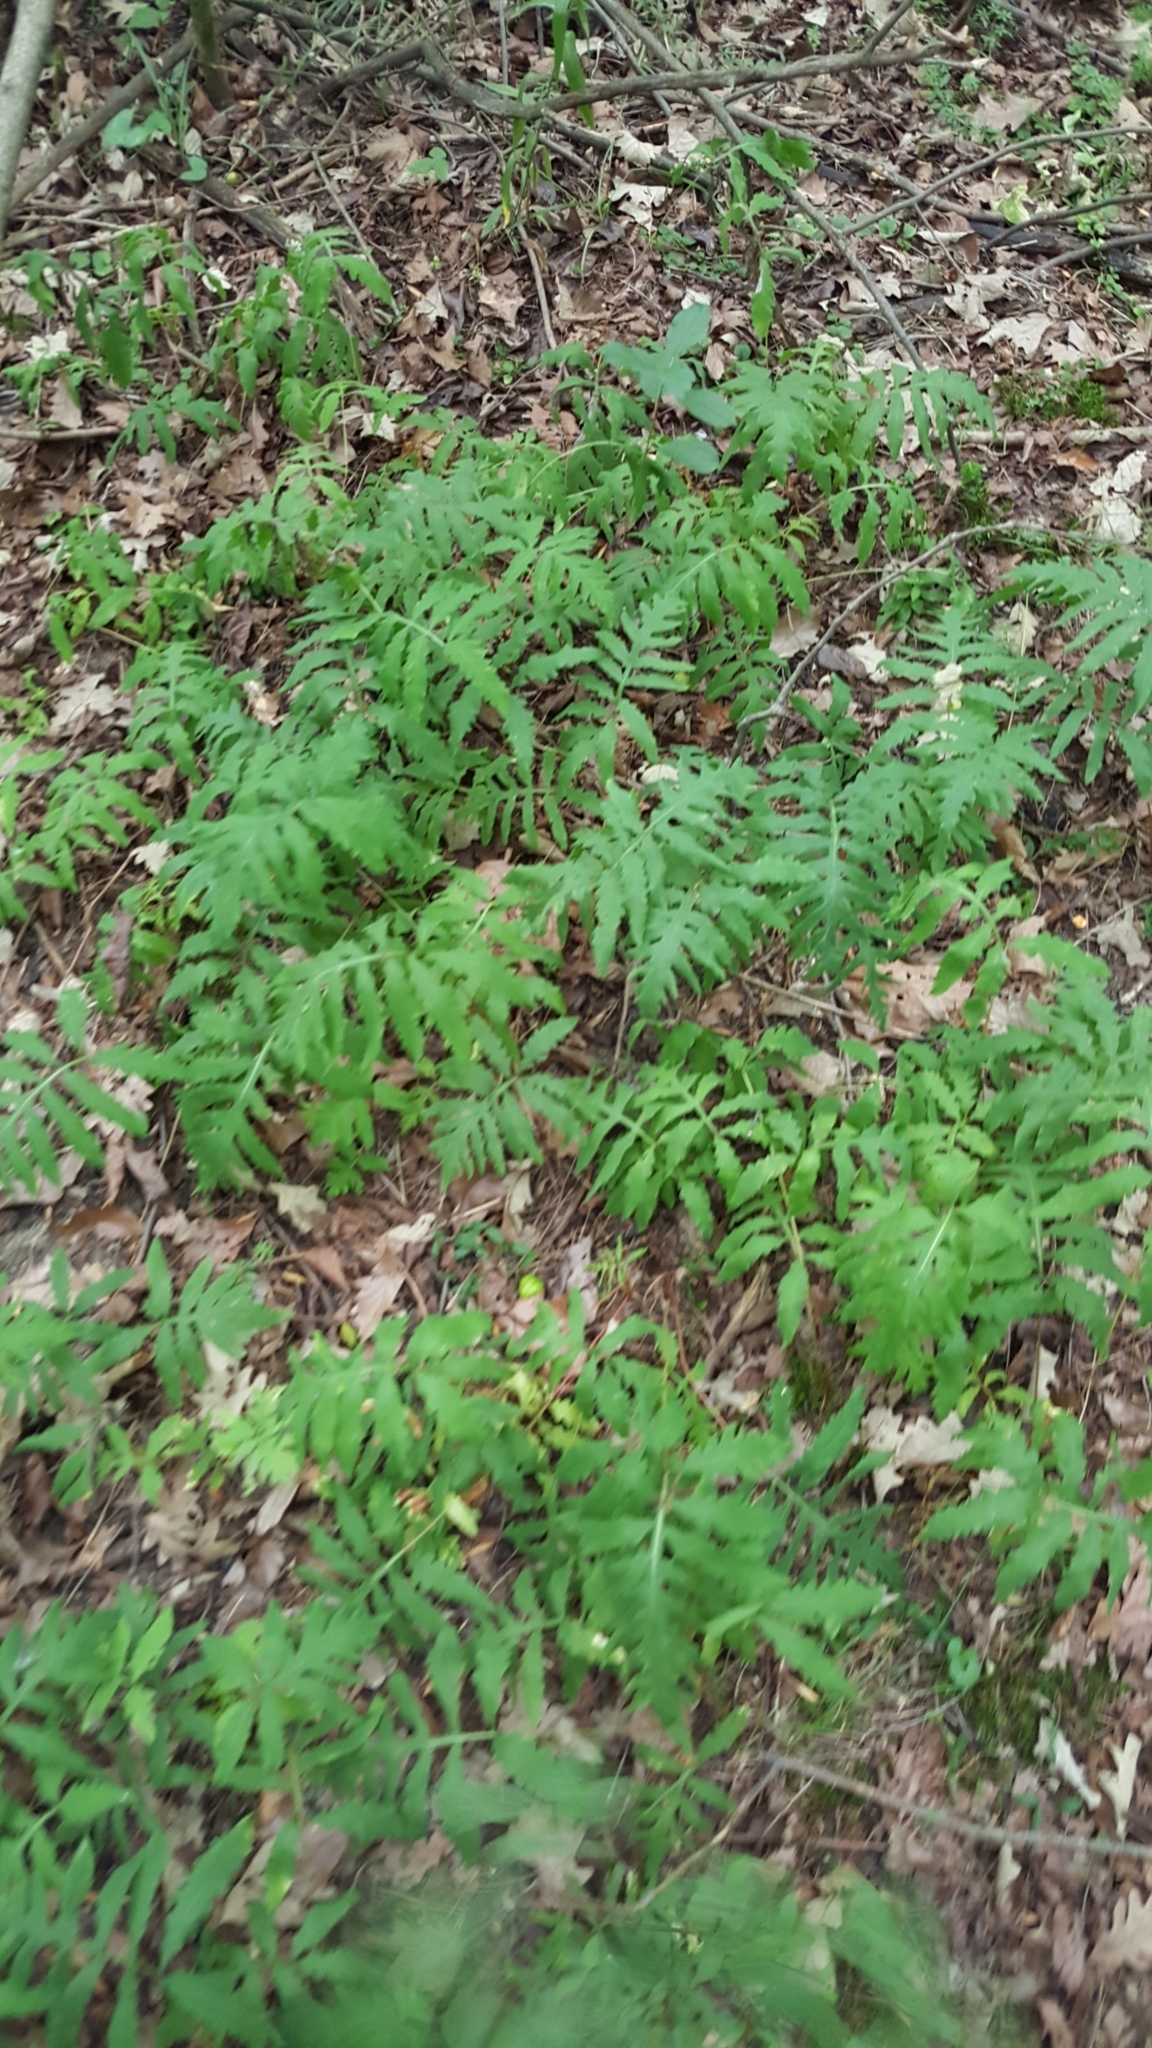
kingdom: Plantae
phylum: Tracheophyta
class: Polypodiopsida
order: Polypodiales
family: Onocleaceae
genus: Onoclea
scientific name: Onoclea sensibilis
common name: Sensitive fern
